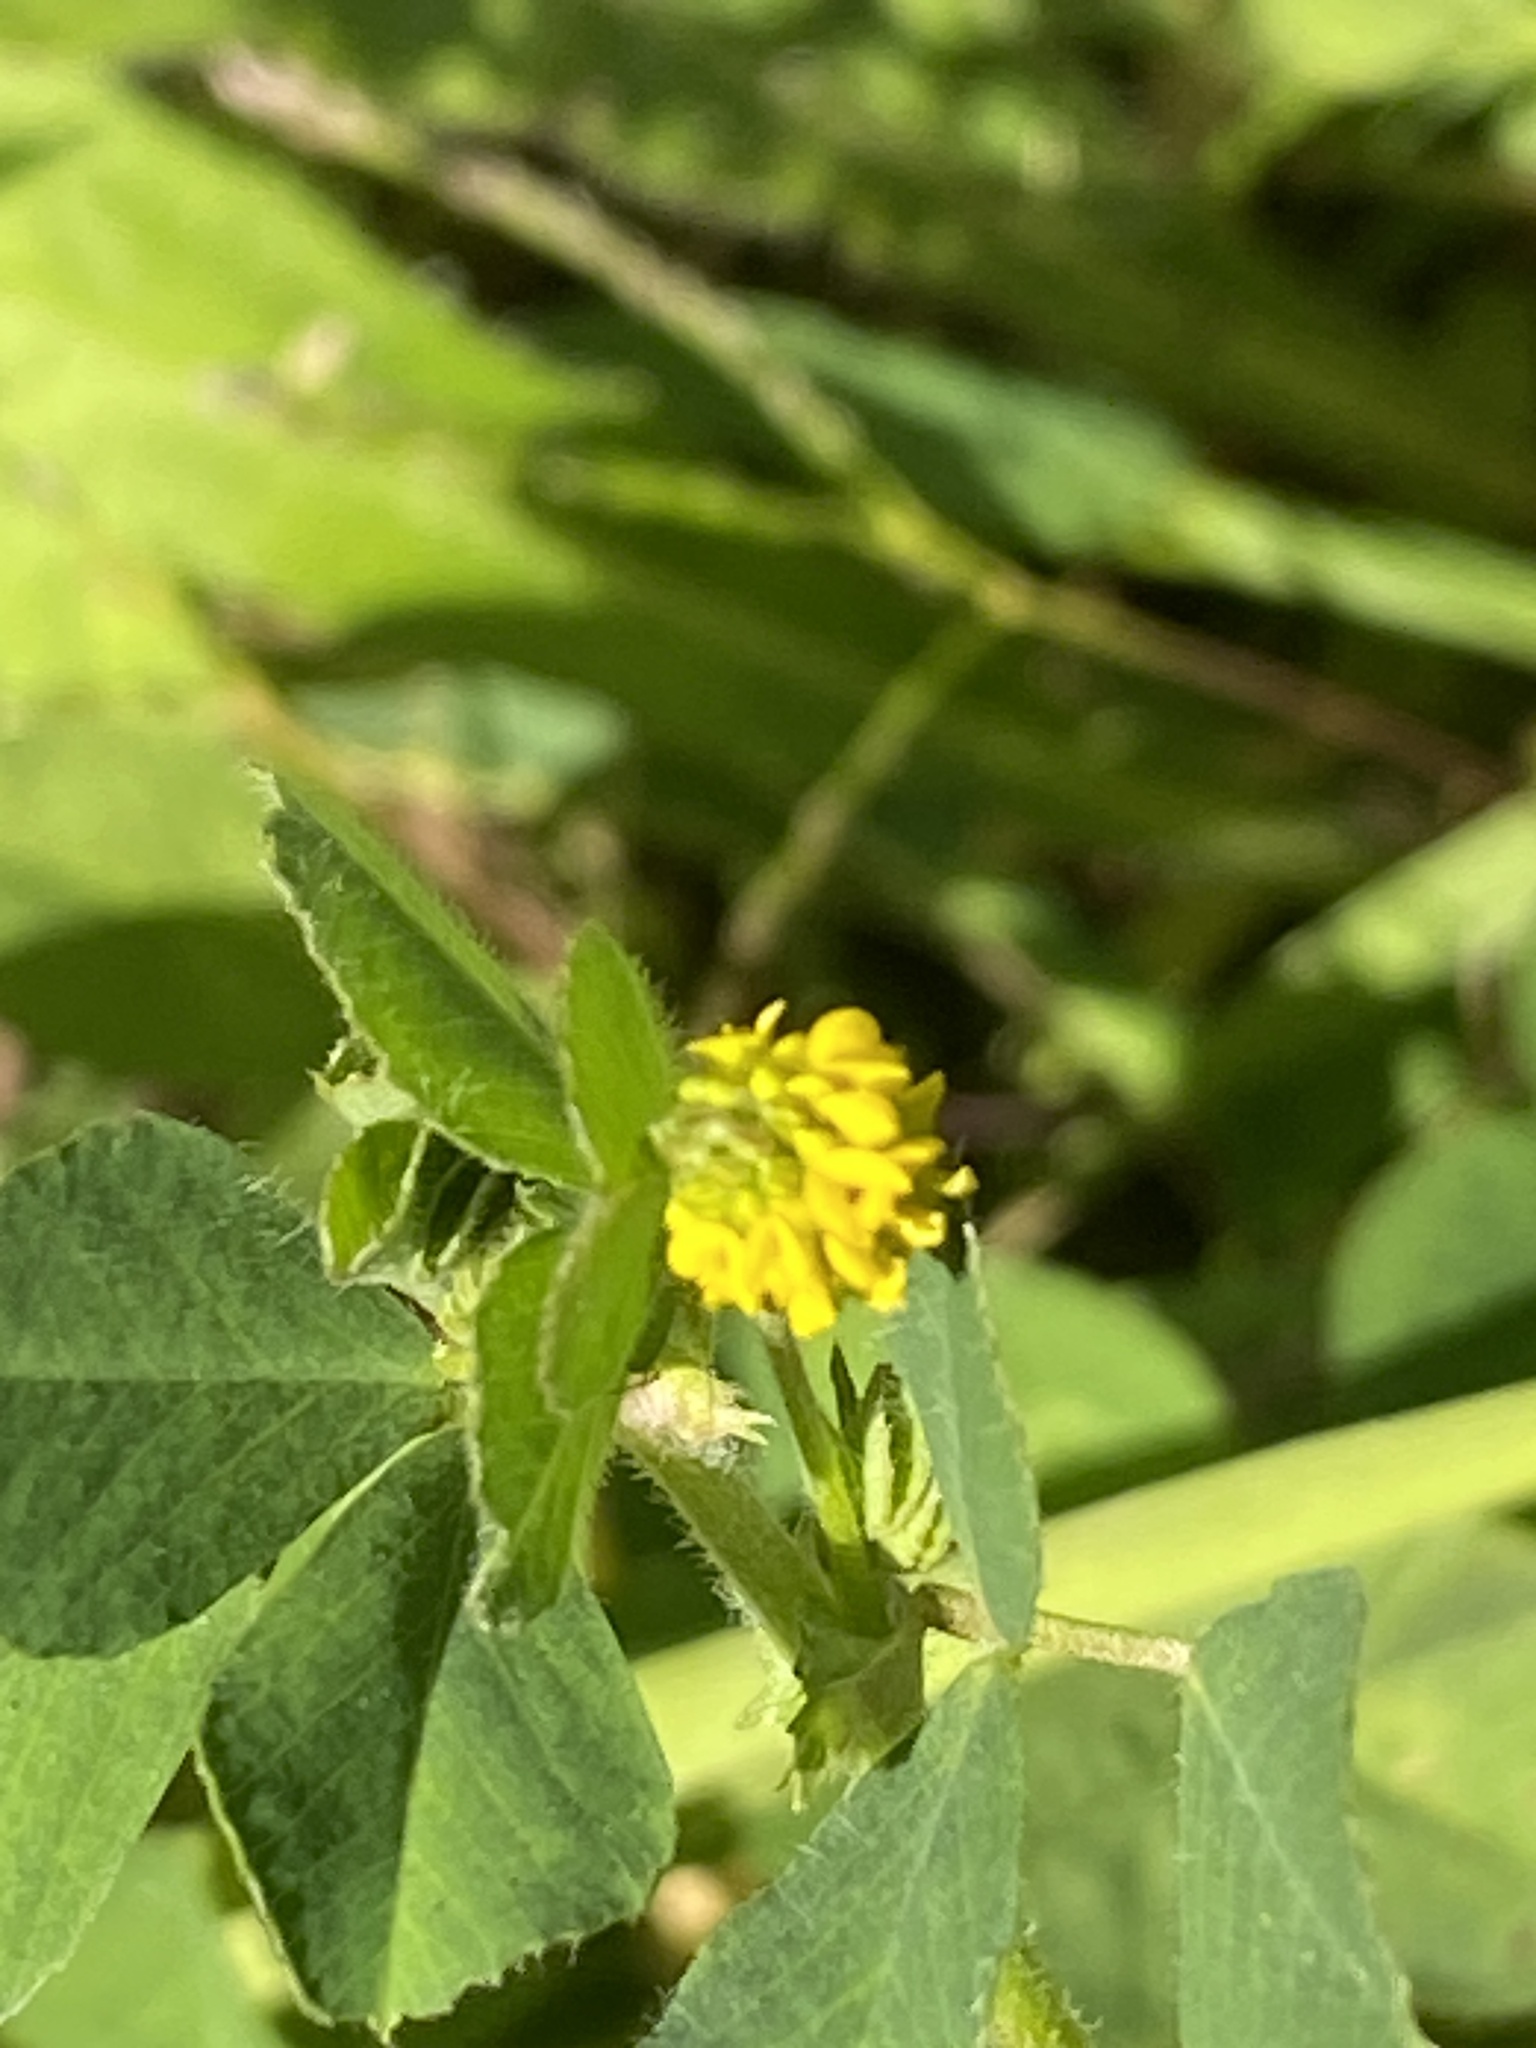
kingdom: Plantae
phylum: Tracheophyta
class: Magnoliopsida
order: Fabales
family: Fabaceae
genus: Medicago
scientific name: Medicago lupulina
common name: Black medick
